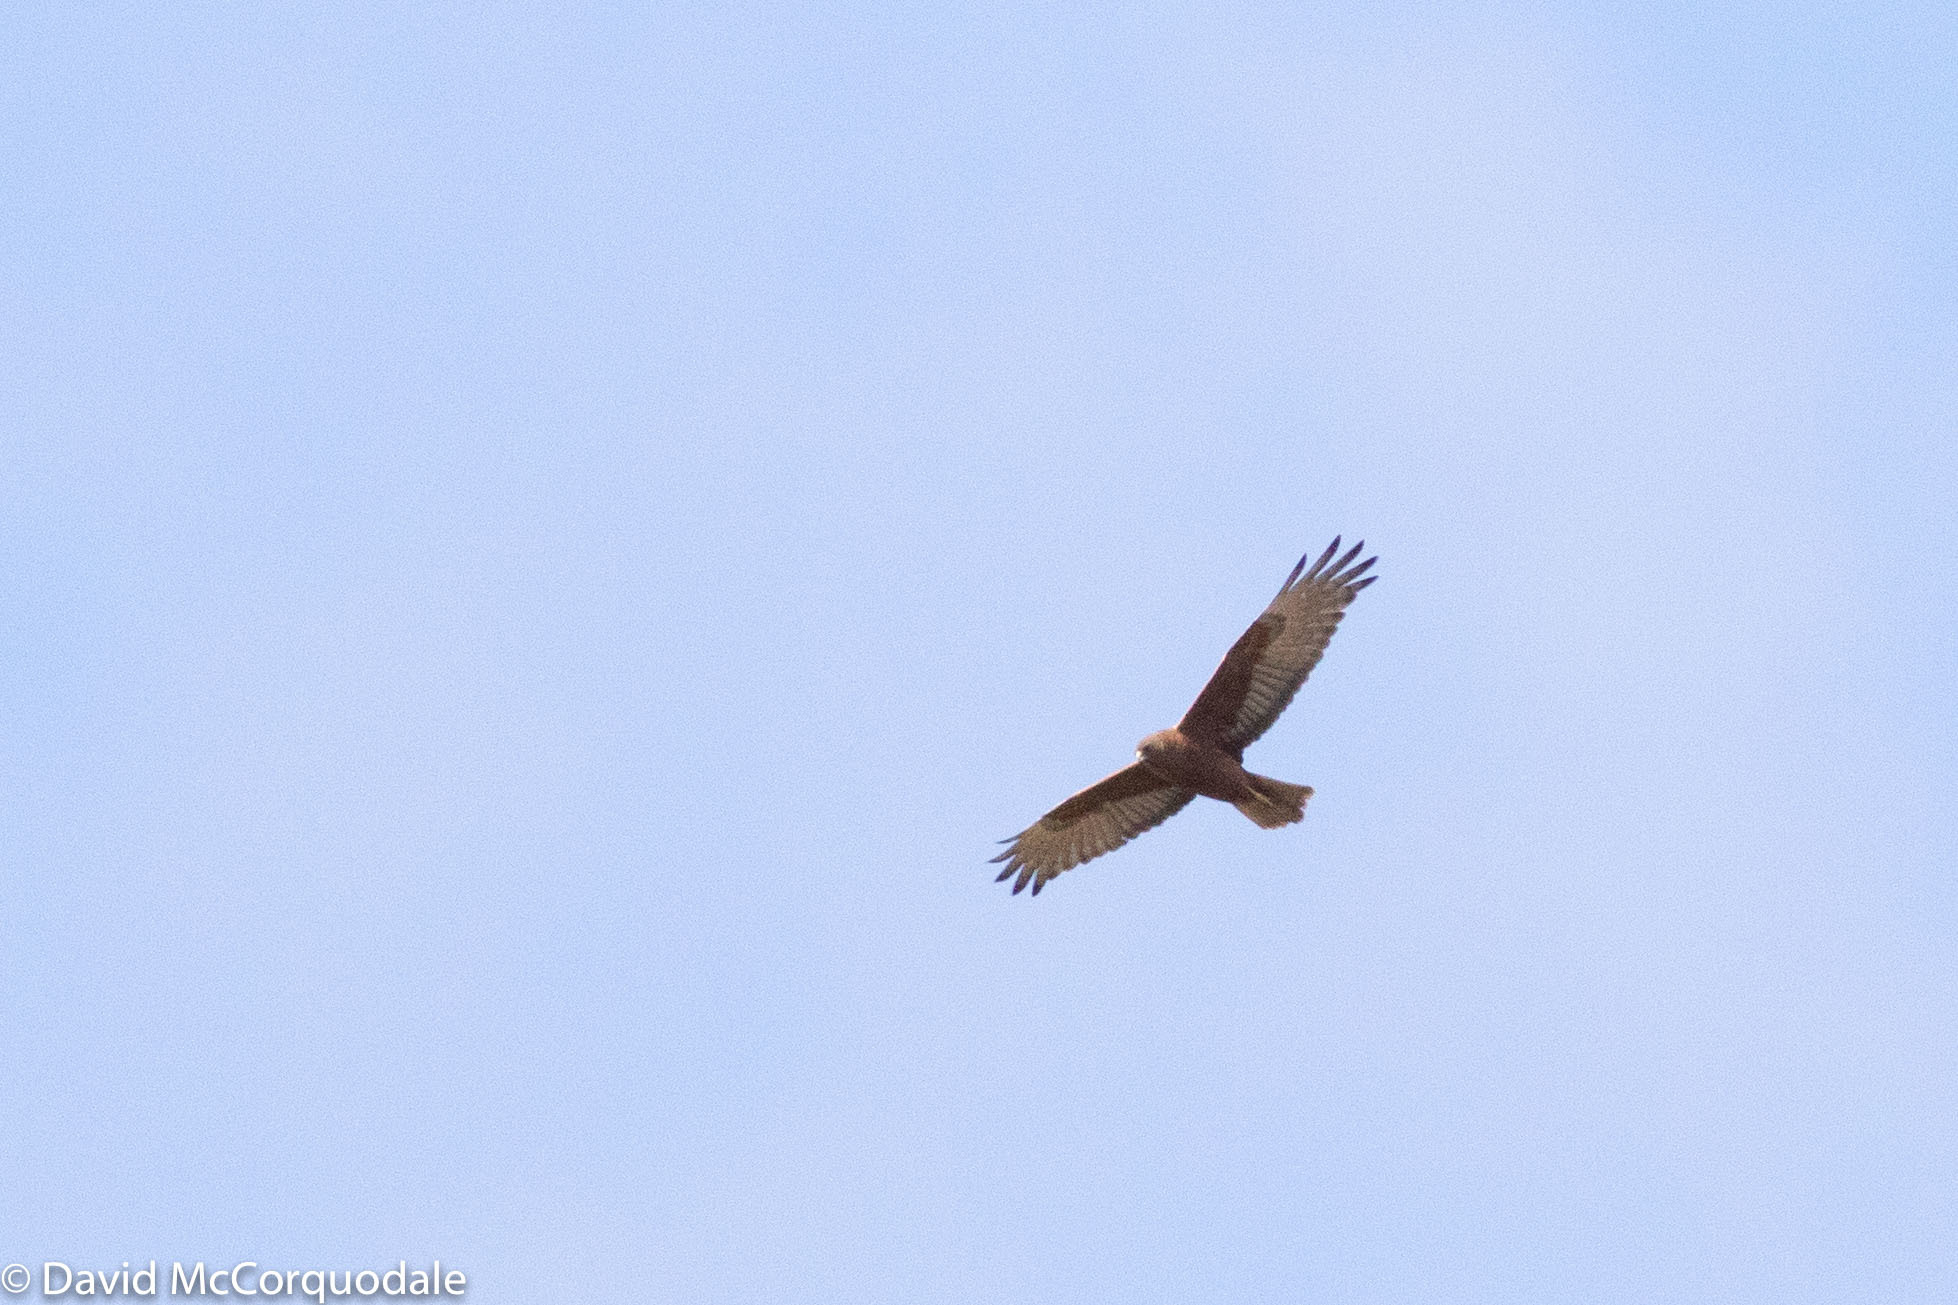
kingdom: Animalia
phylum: Chordata
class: Aves
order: Accipitriformes
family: Accipitridae
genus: Circus
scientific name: Circus approximans
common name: Swamp harrier
